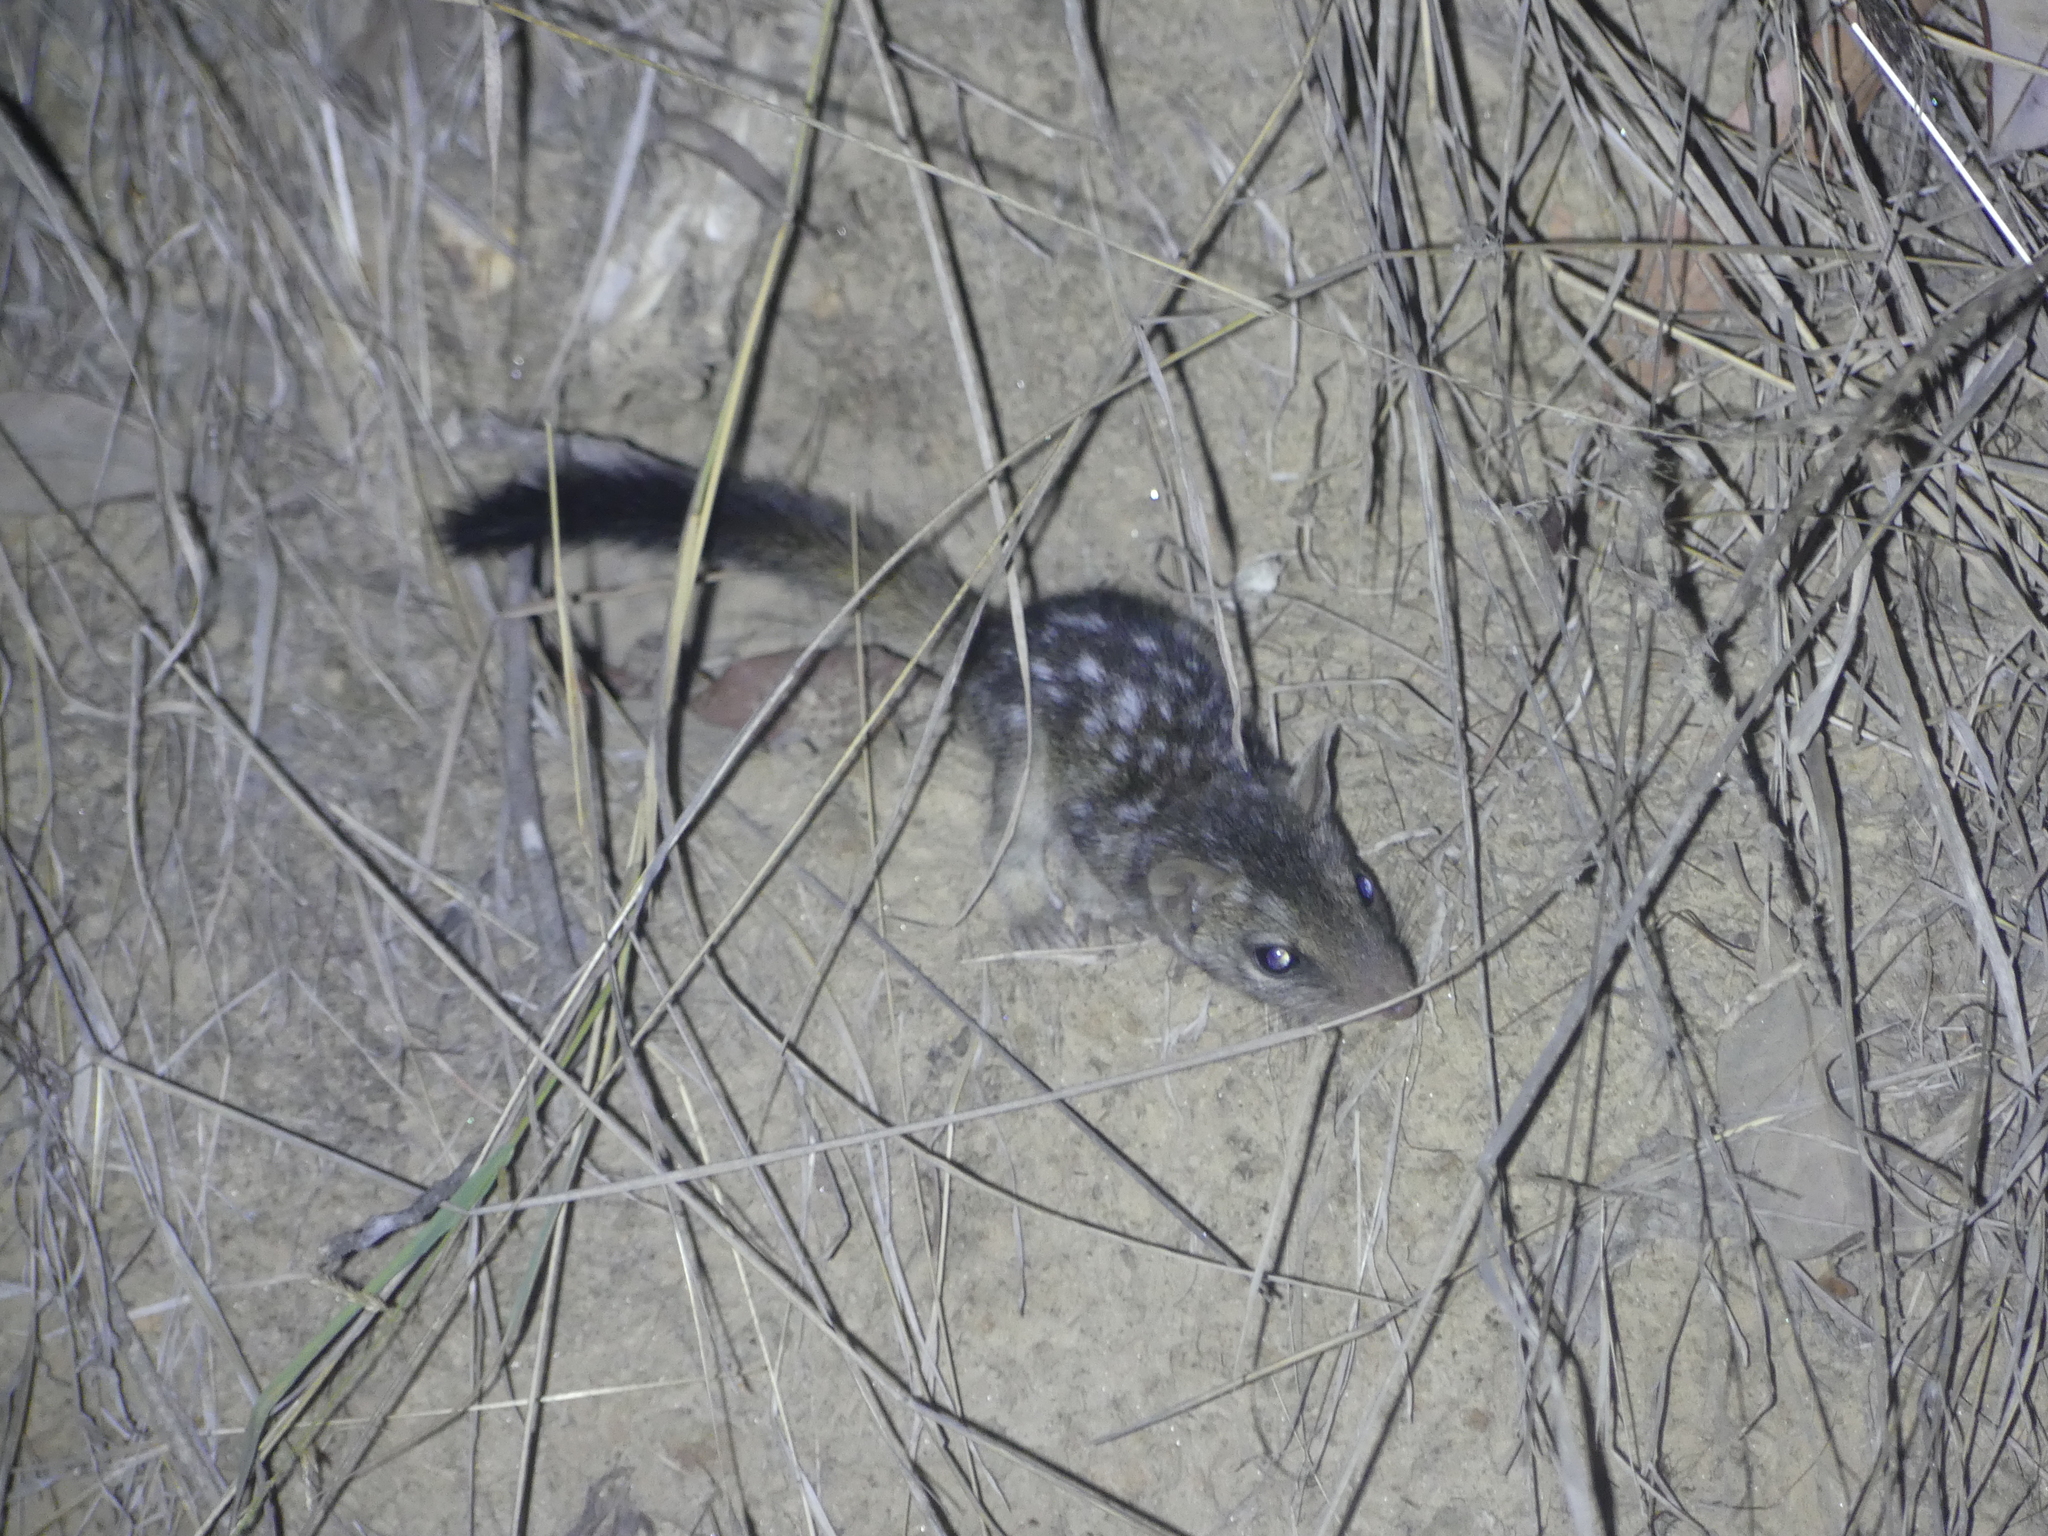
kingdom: Animalia
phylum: Chordata
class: Mammalia
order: Dasyuromorphia
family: Dasyuridae
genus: Dasyurus
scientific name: Dasyurus hallucatus
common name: Northern quoll
